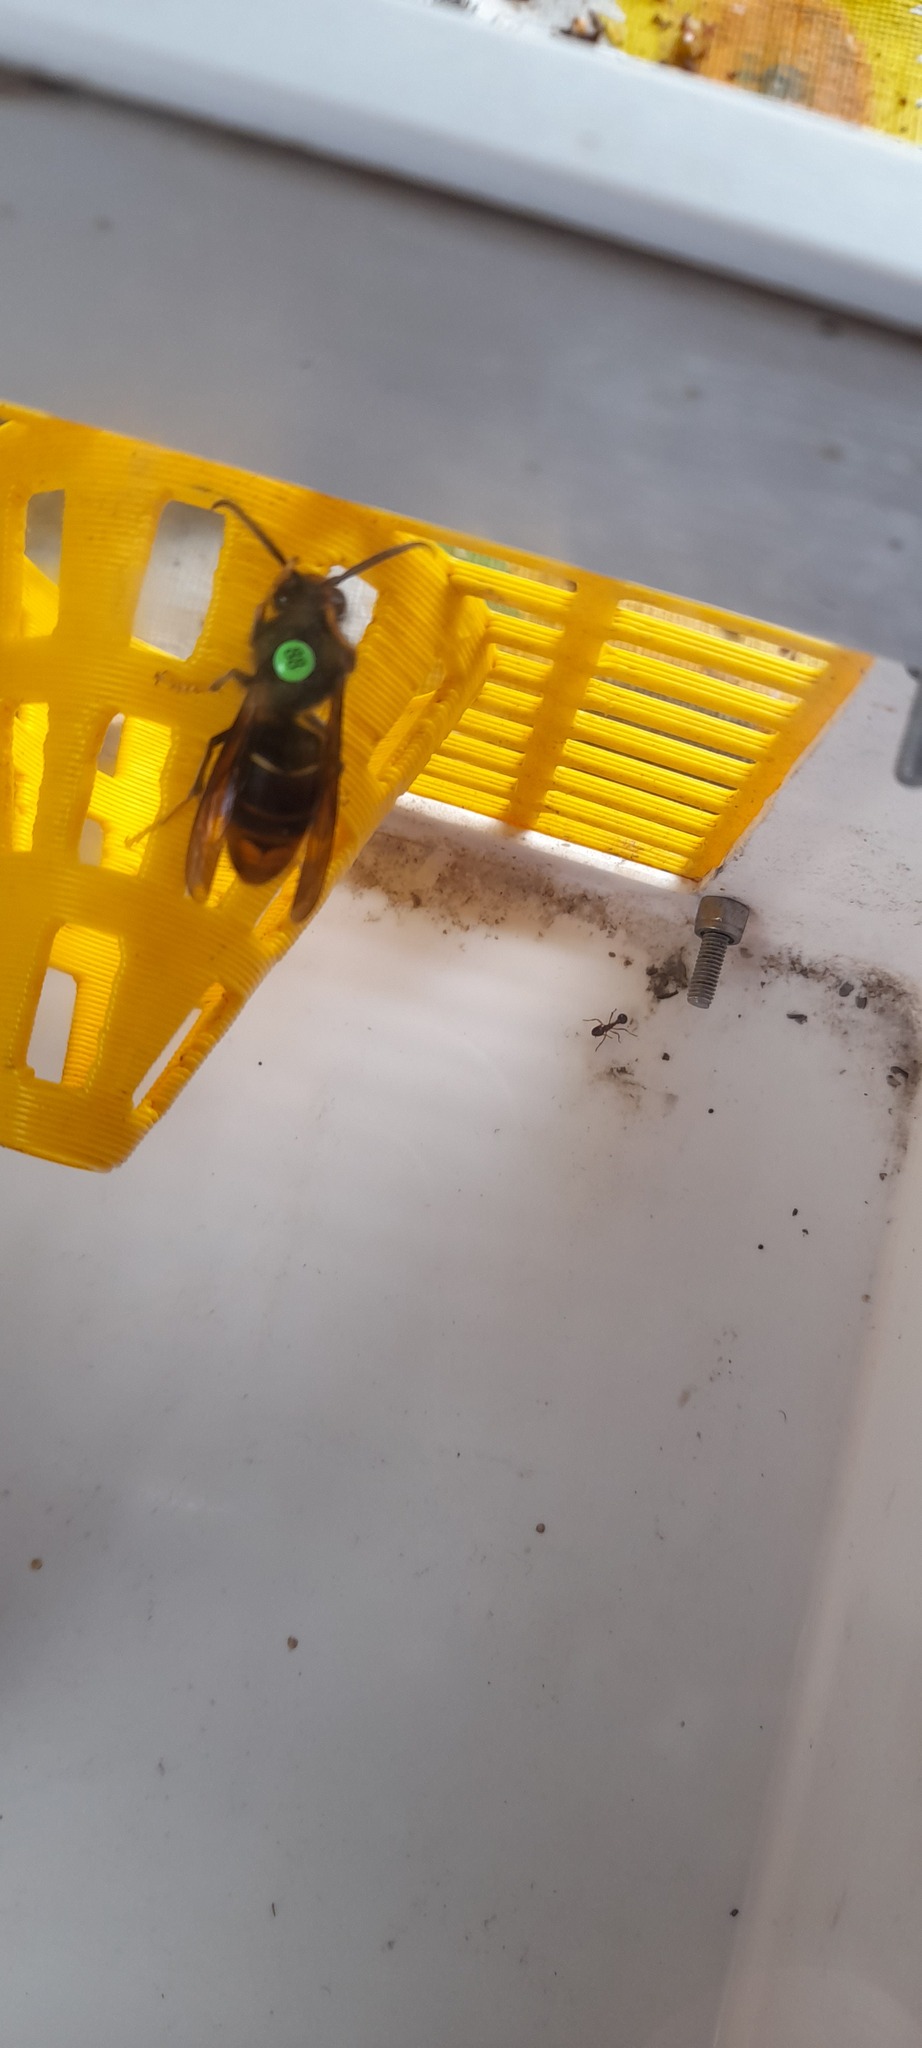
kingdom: Animalia
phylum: Arthropoda
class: Insecta
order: Hymenoptera
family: Vespidae
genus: Vespa
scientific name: Vespa velutina
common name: Asian hornet
